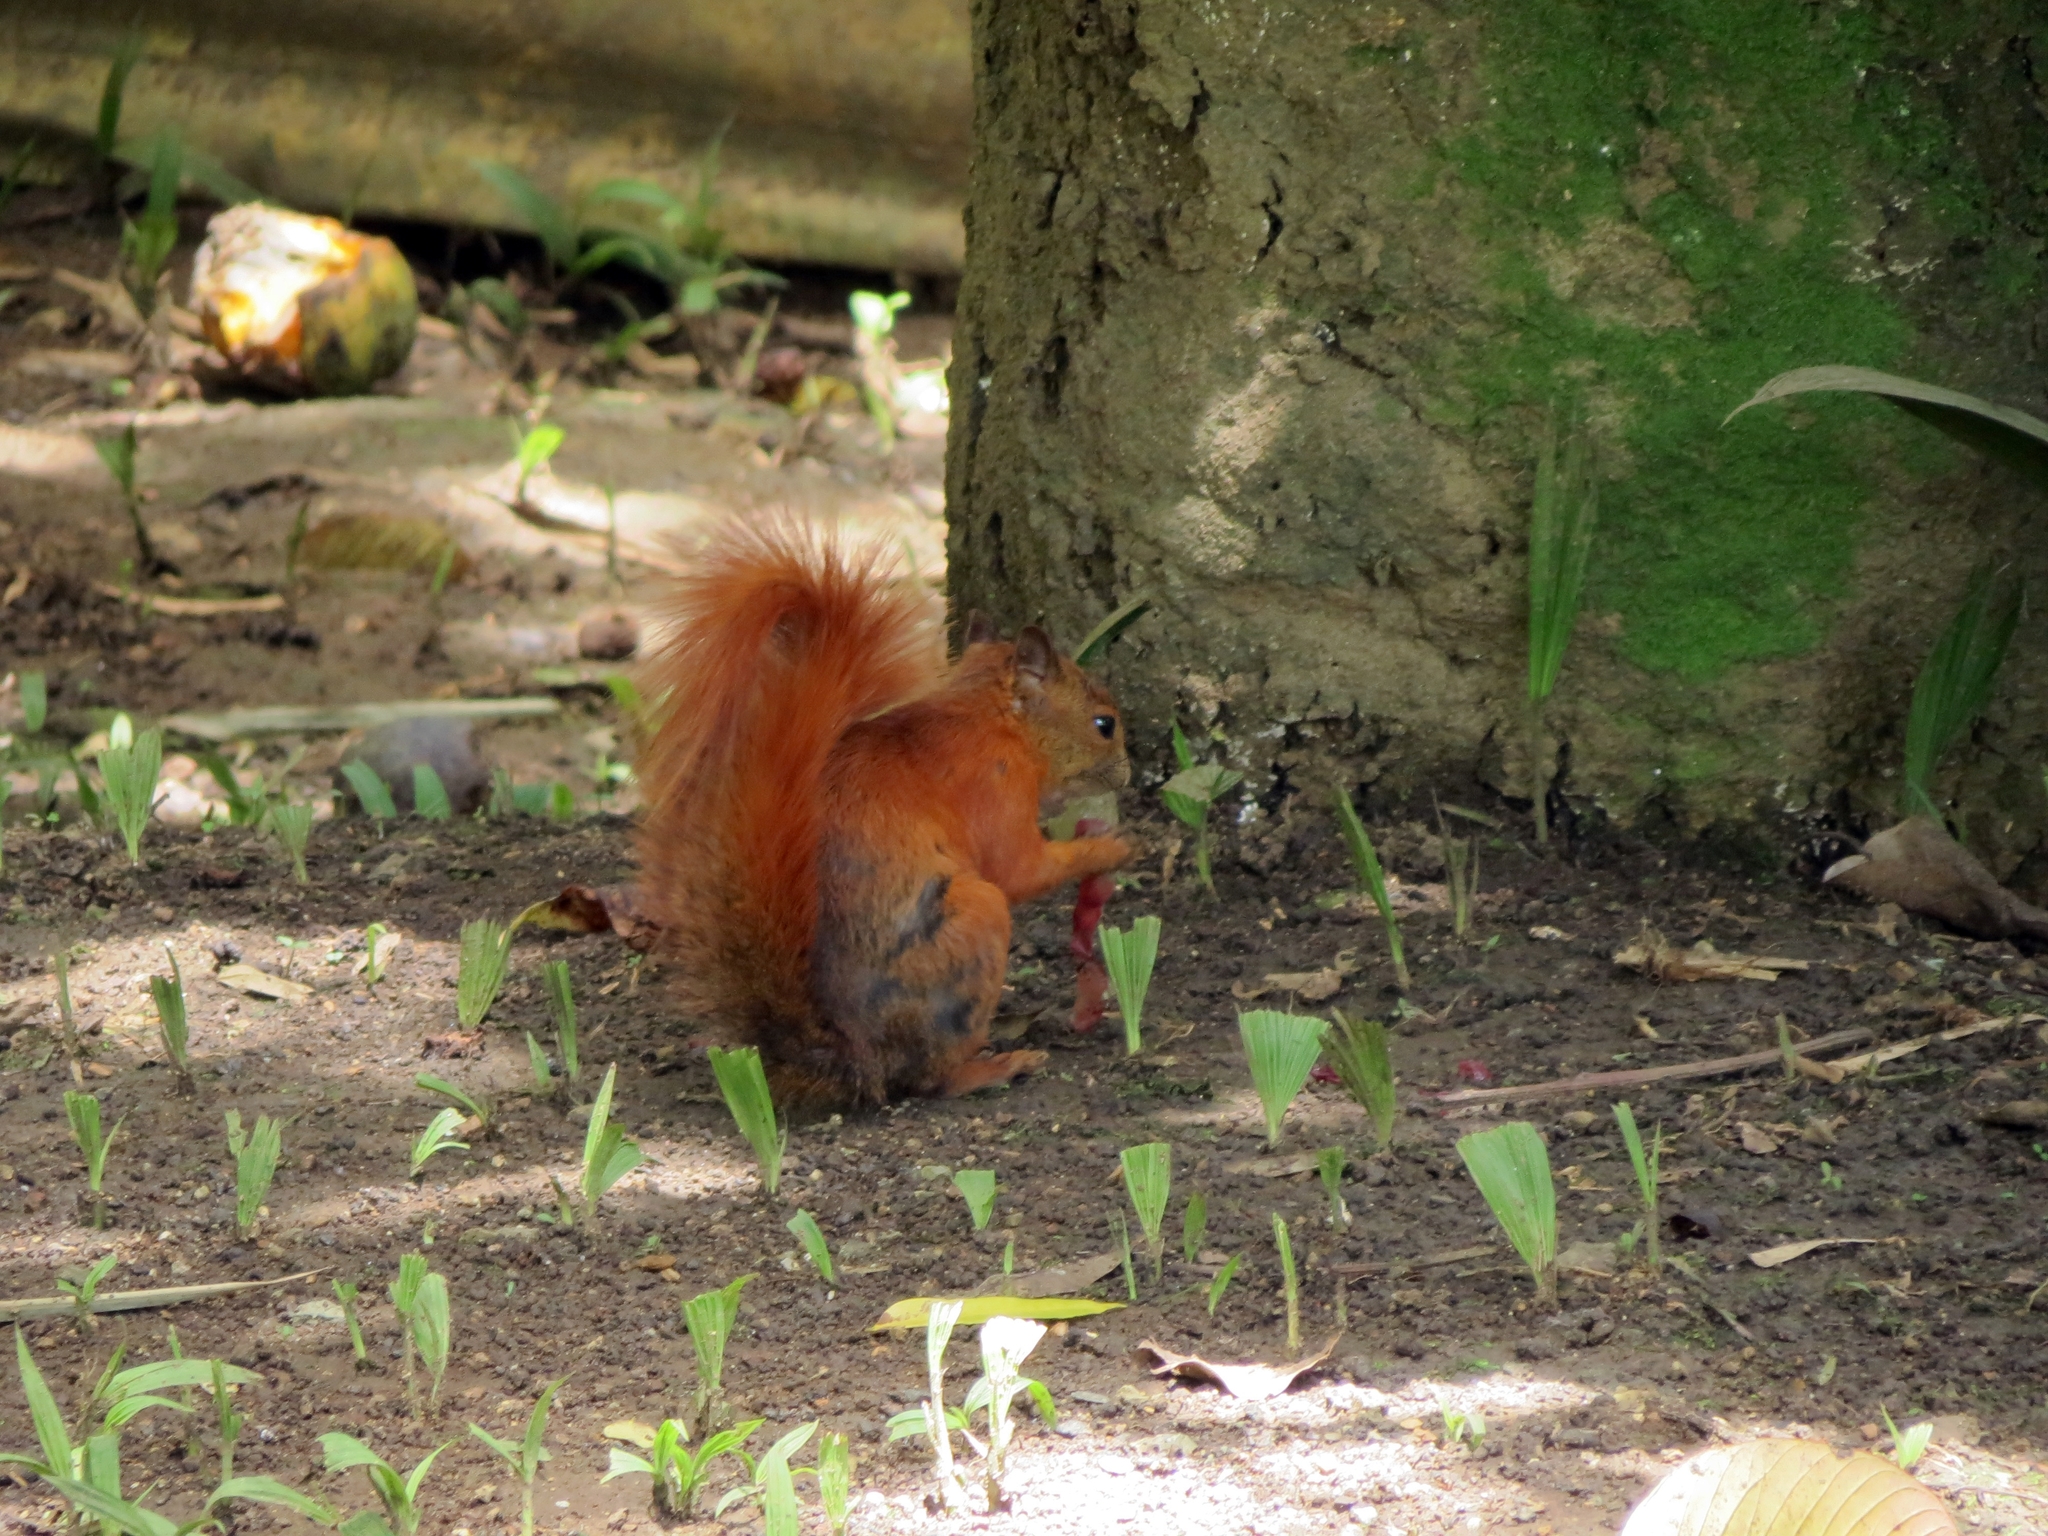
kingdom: Animalia
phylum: Chordata
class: Mammalia
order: Rodentia
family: Sciuridae
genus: Sciurus
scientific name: Sciurus granatensis
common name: Red-tailed squirrel
